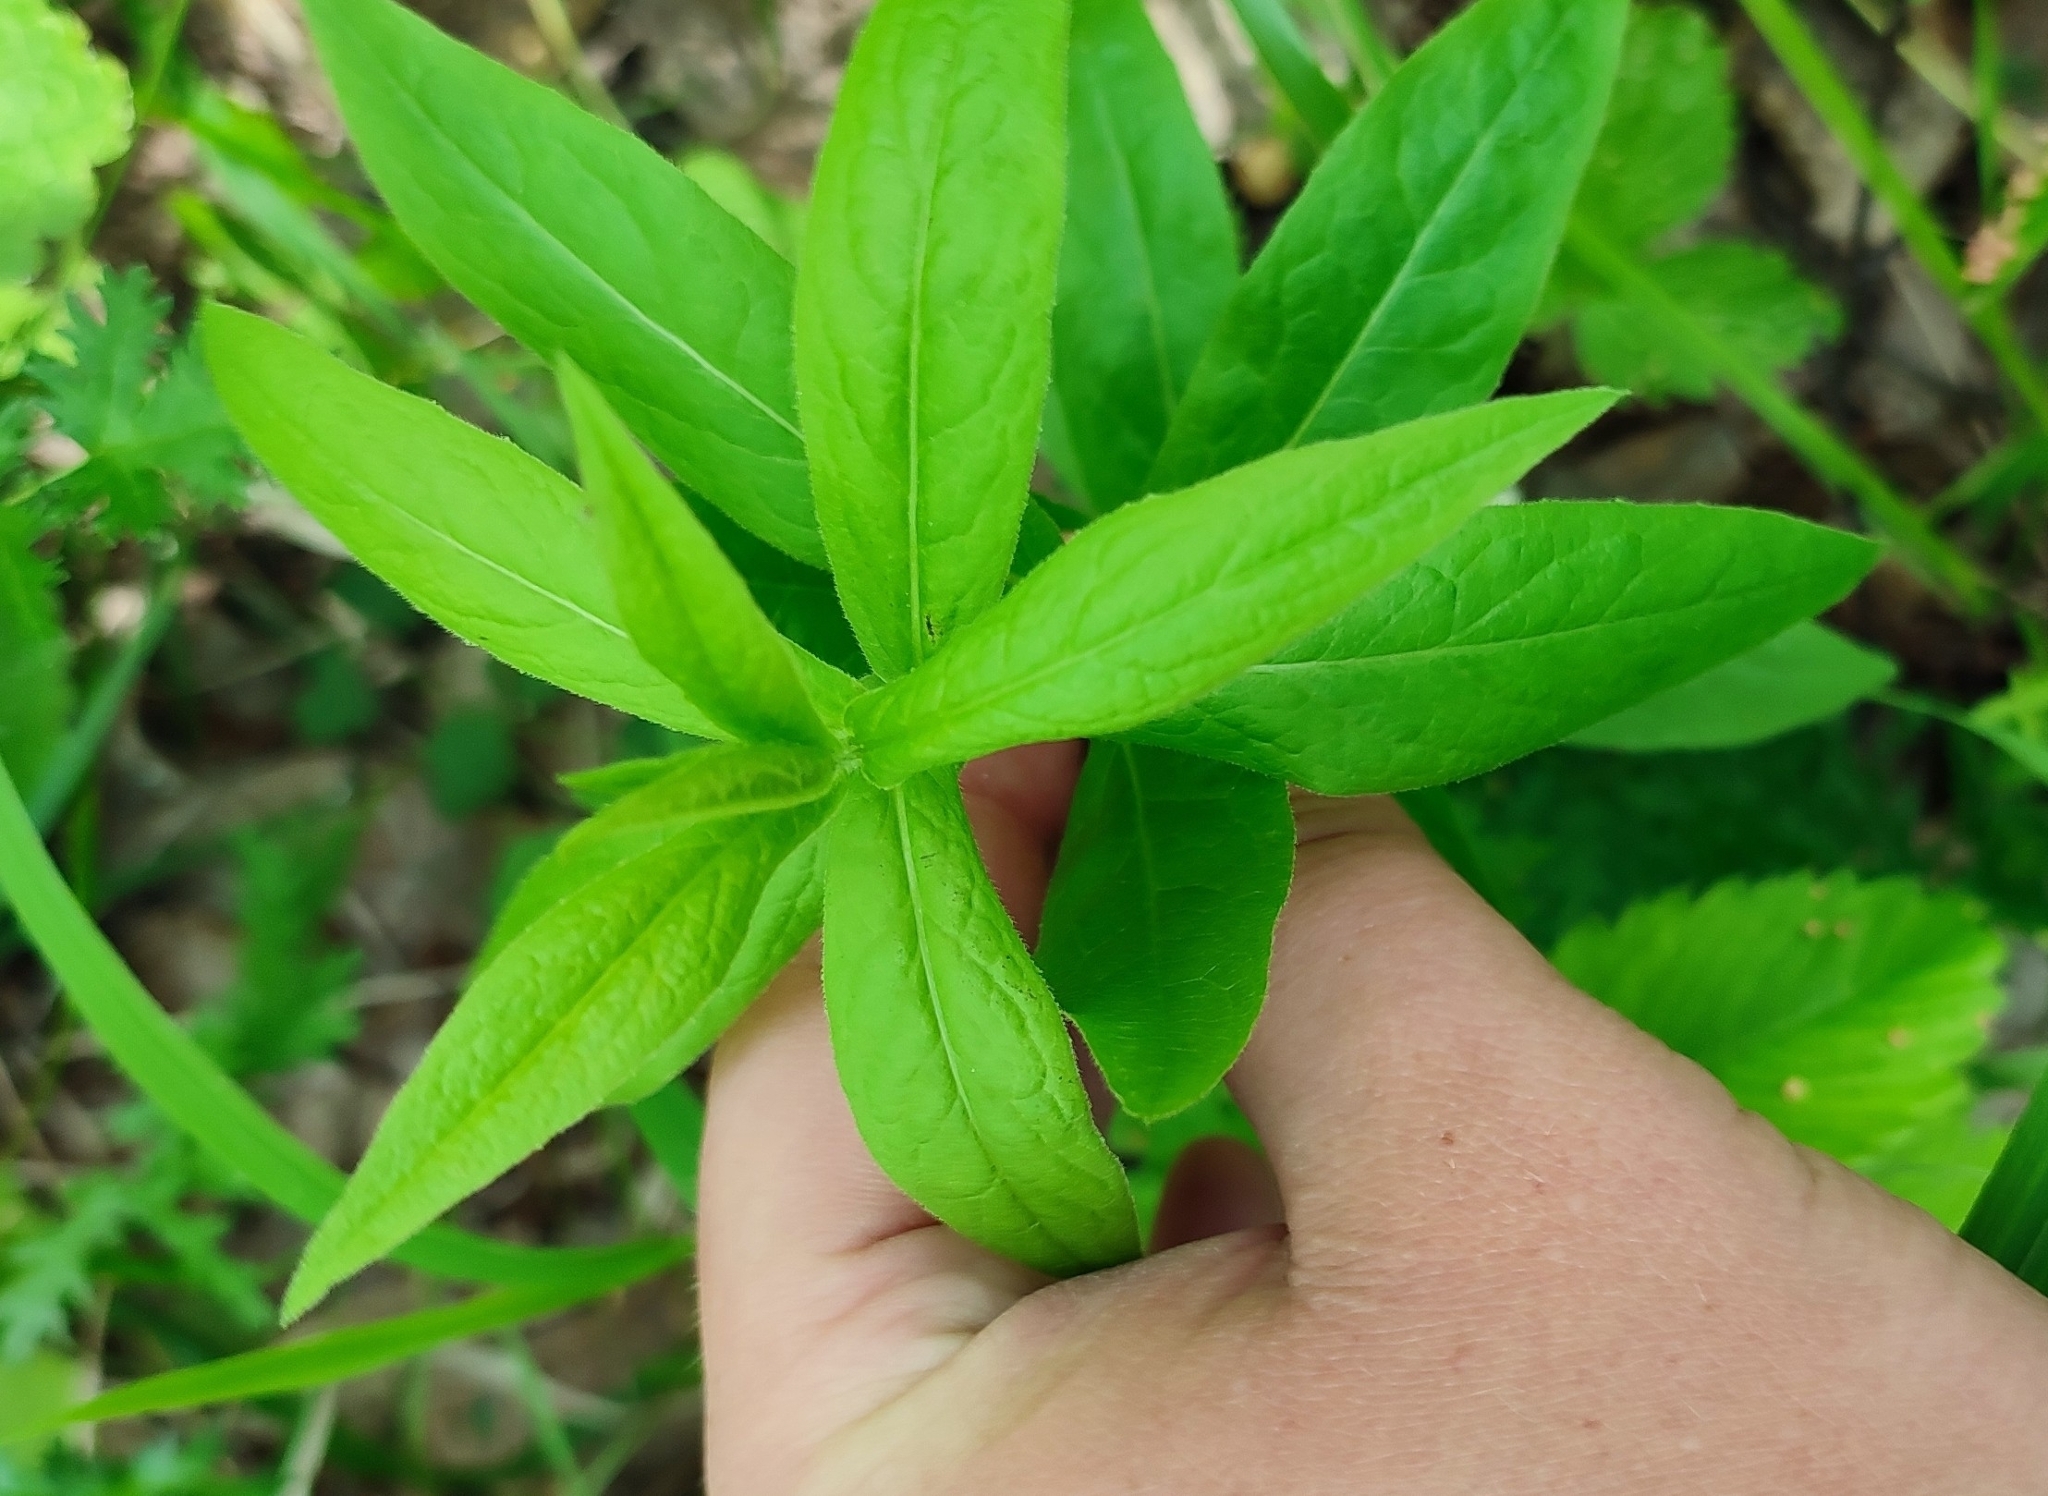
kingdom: Plantae
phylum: Tracheophyta
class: Magnoliopsida
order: Asterales
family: Asteraceae
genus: Pentanema
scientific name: Pentanema salicinum
